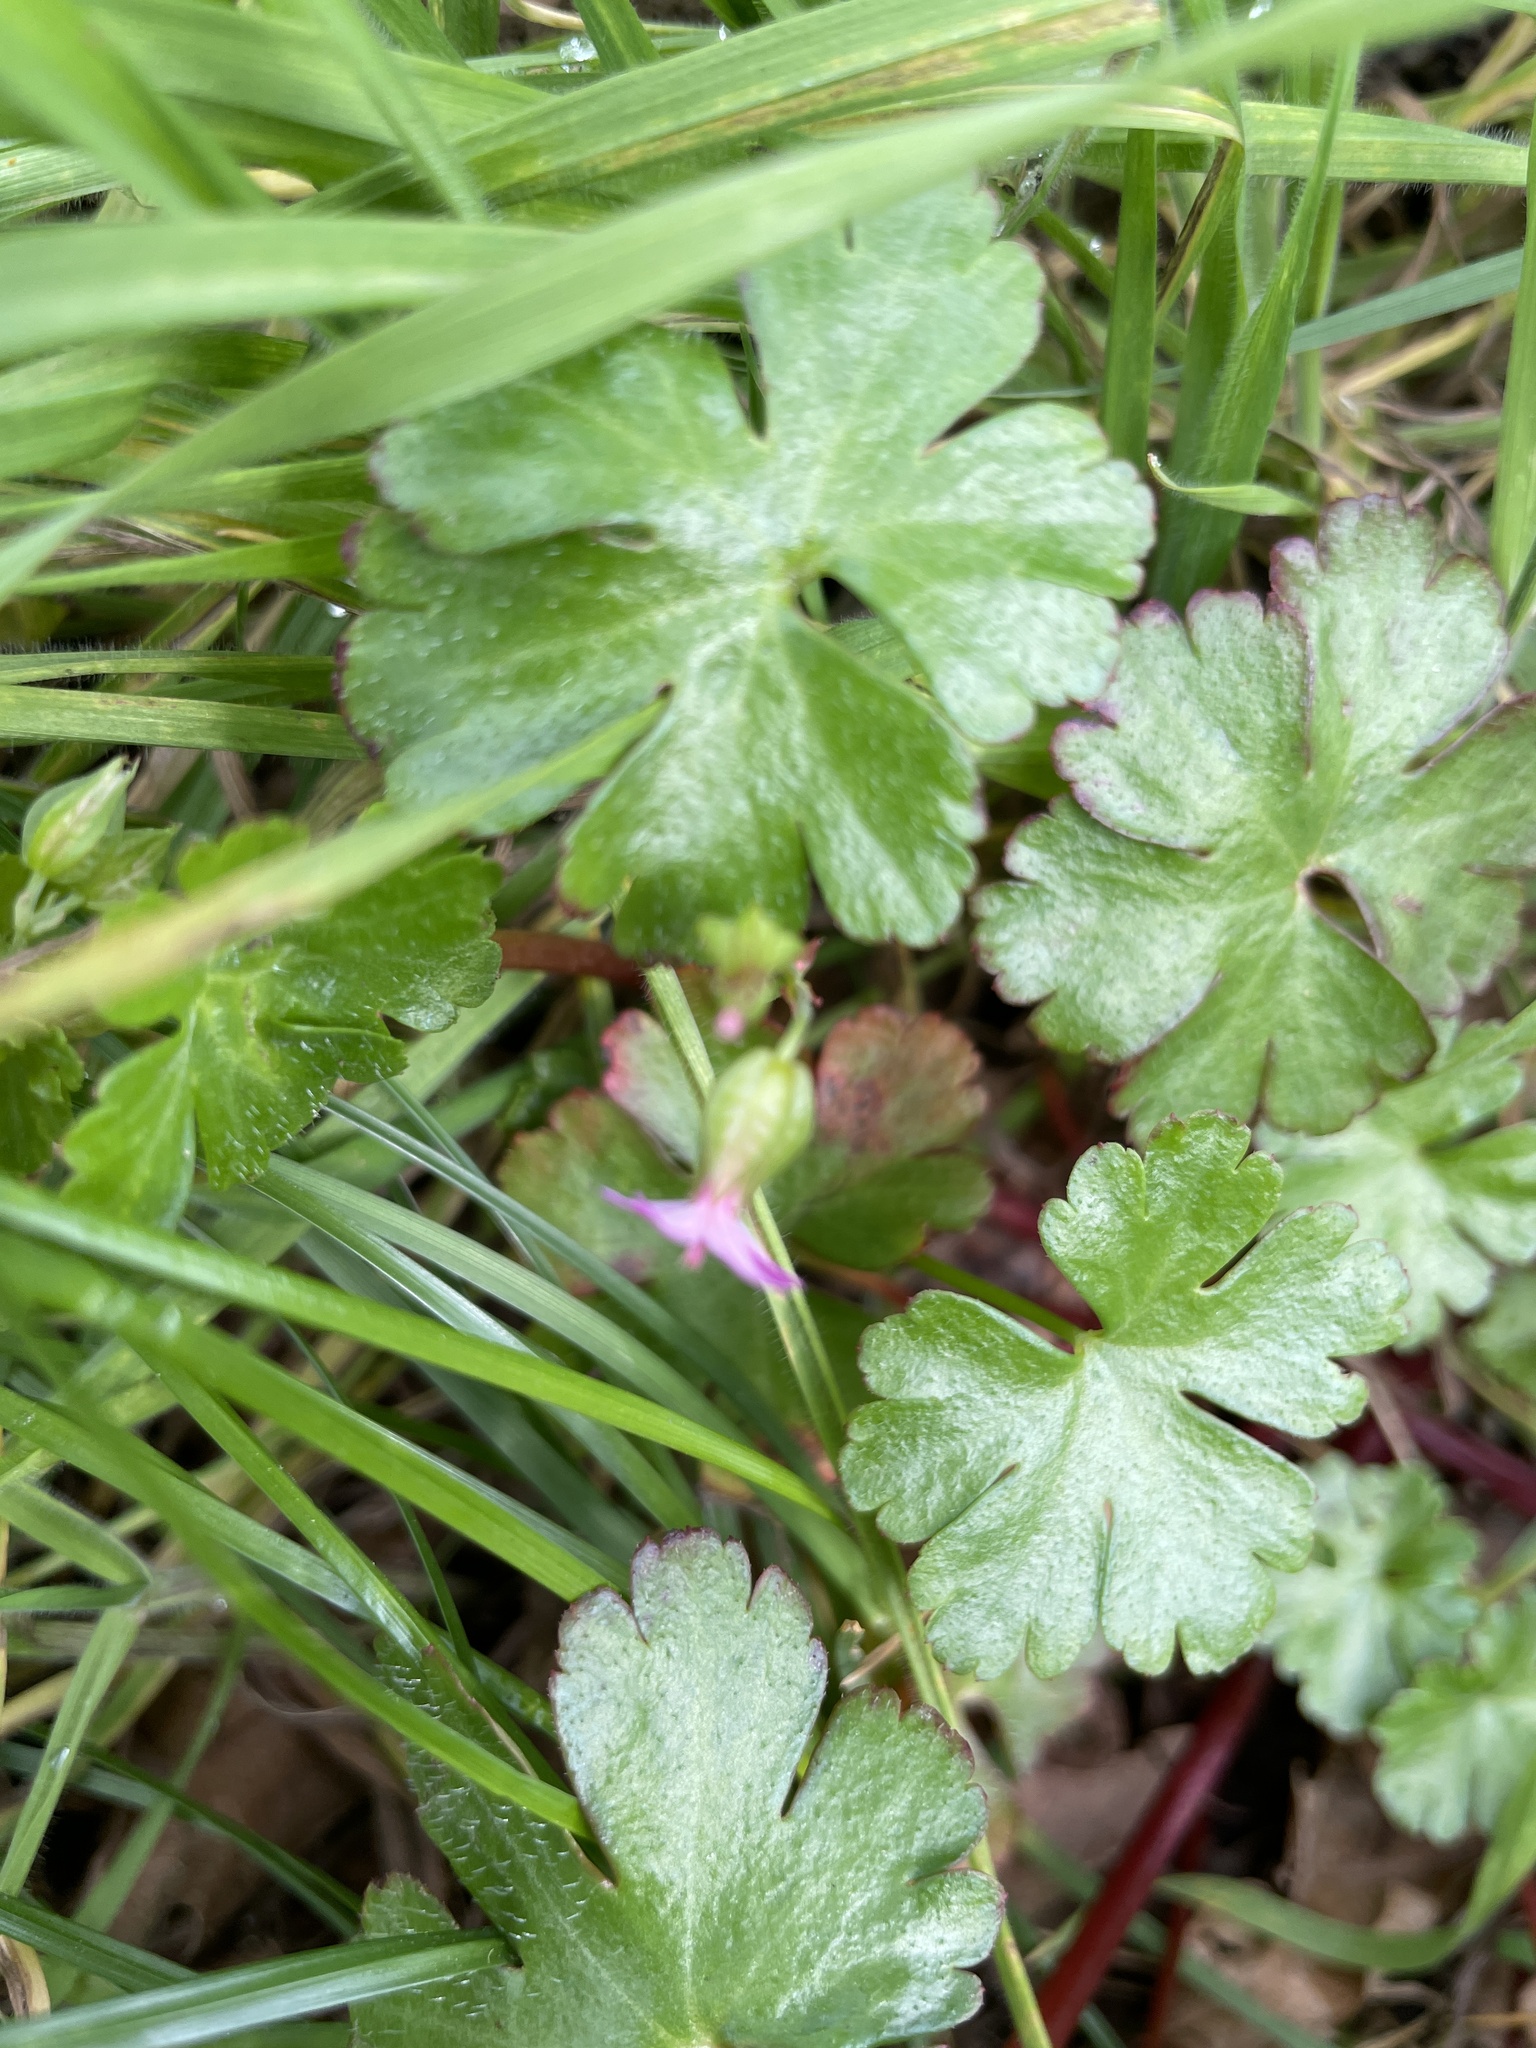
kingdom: Plantae
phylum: Tracheophyta
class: Magnoliopsida
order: Geraniales
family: Geraniaceae
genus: Geranium
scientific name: Geranium lucidum
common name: Shining crane's-bill
